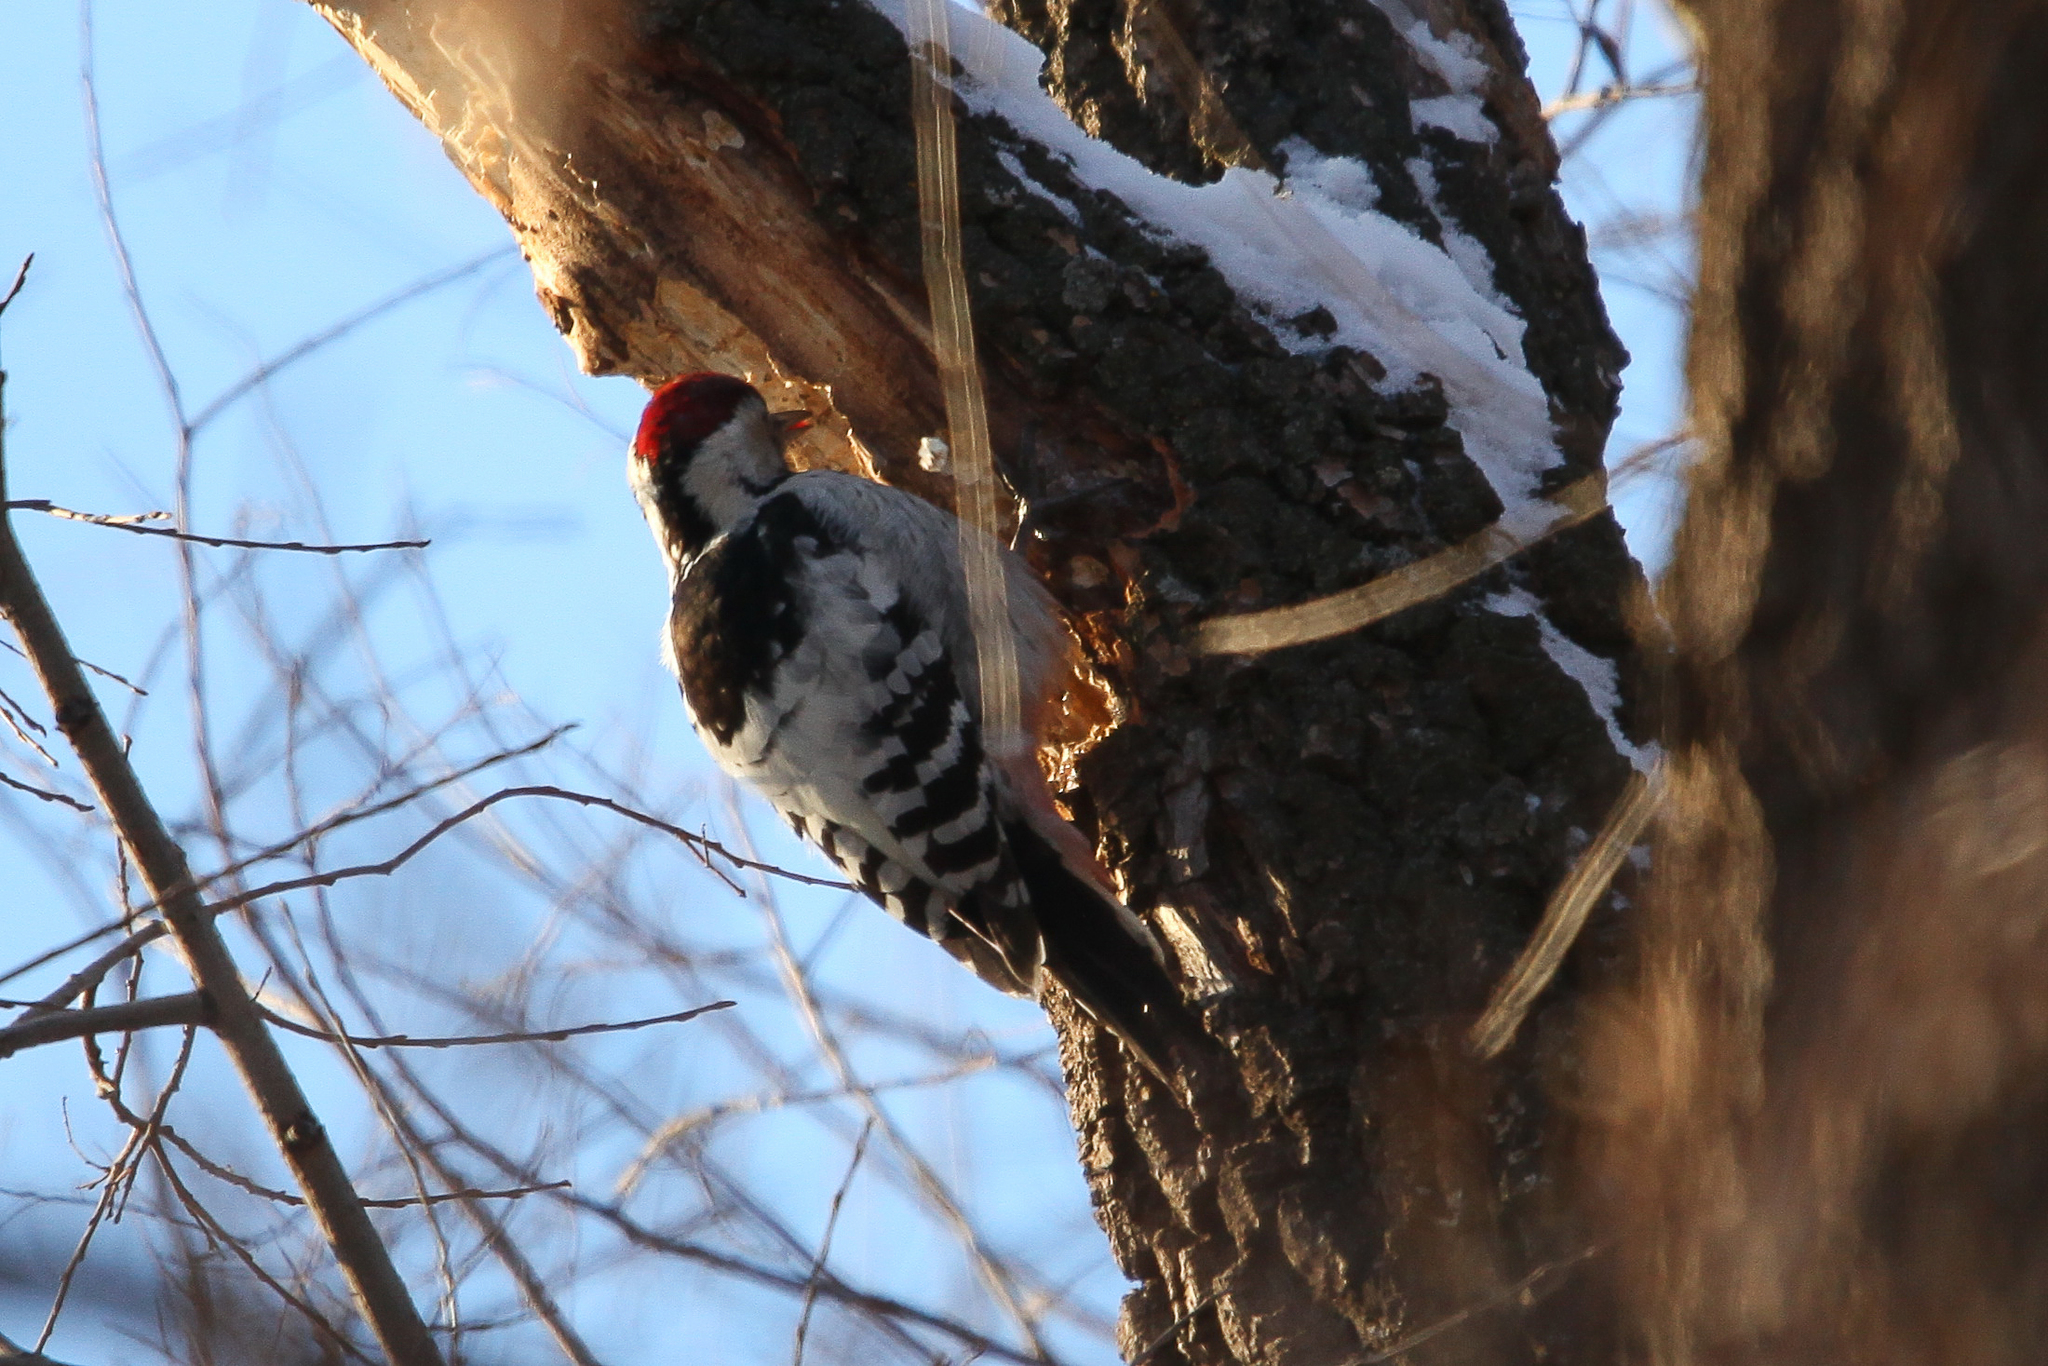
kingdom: Animalia
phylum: Chordata
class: Aves
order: Piciformes
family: Picidae
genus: Dendrocopos
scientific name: Dendrocopos leucotos
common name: White-backed woodpecker
